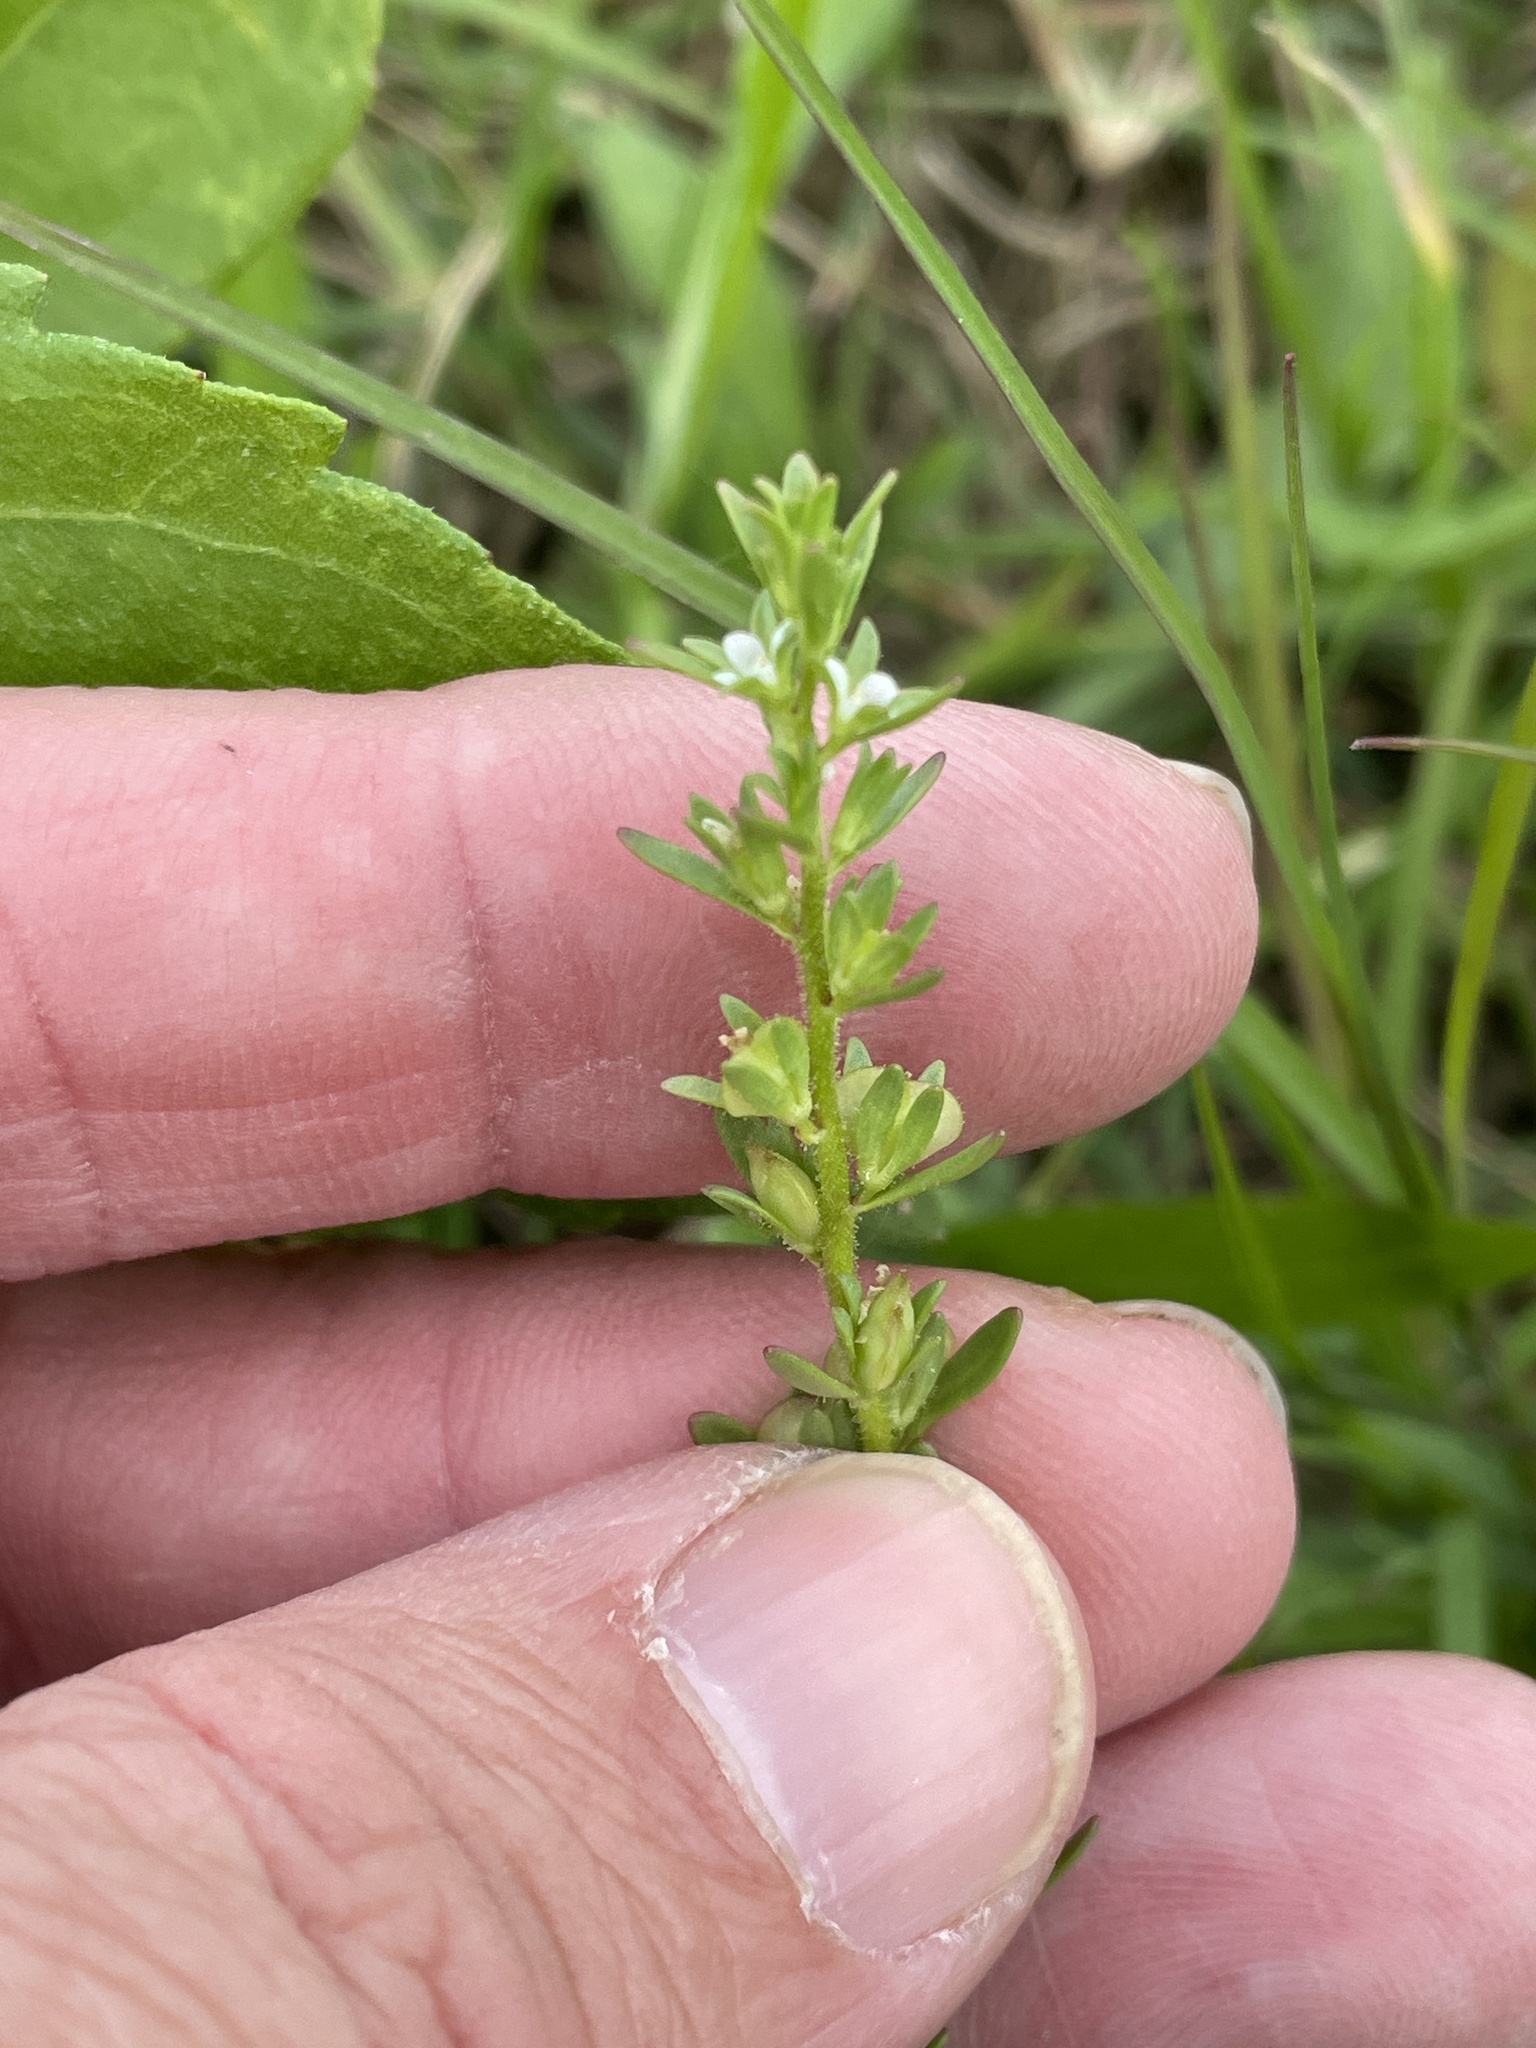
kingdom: Plantae
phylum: Tracheophyta
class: Magnoliopsida
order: Lamiales
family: Plantaginaceae
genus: Veronica
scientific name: Veronica peregrina
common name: Neckweed
